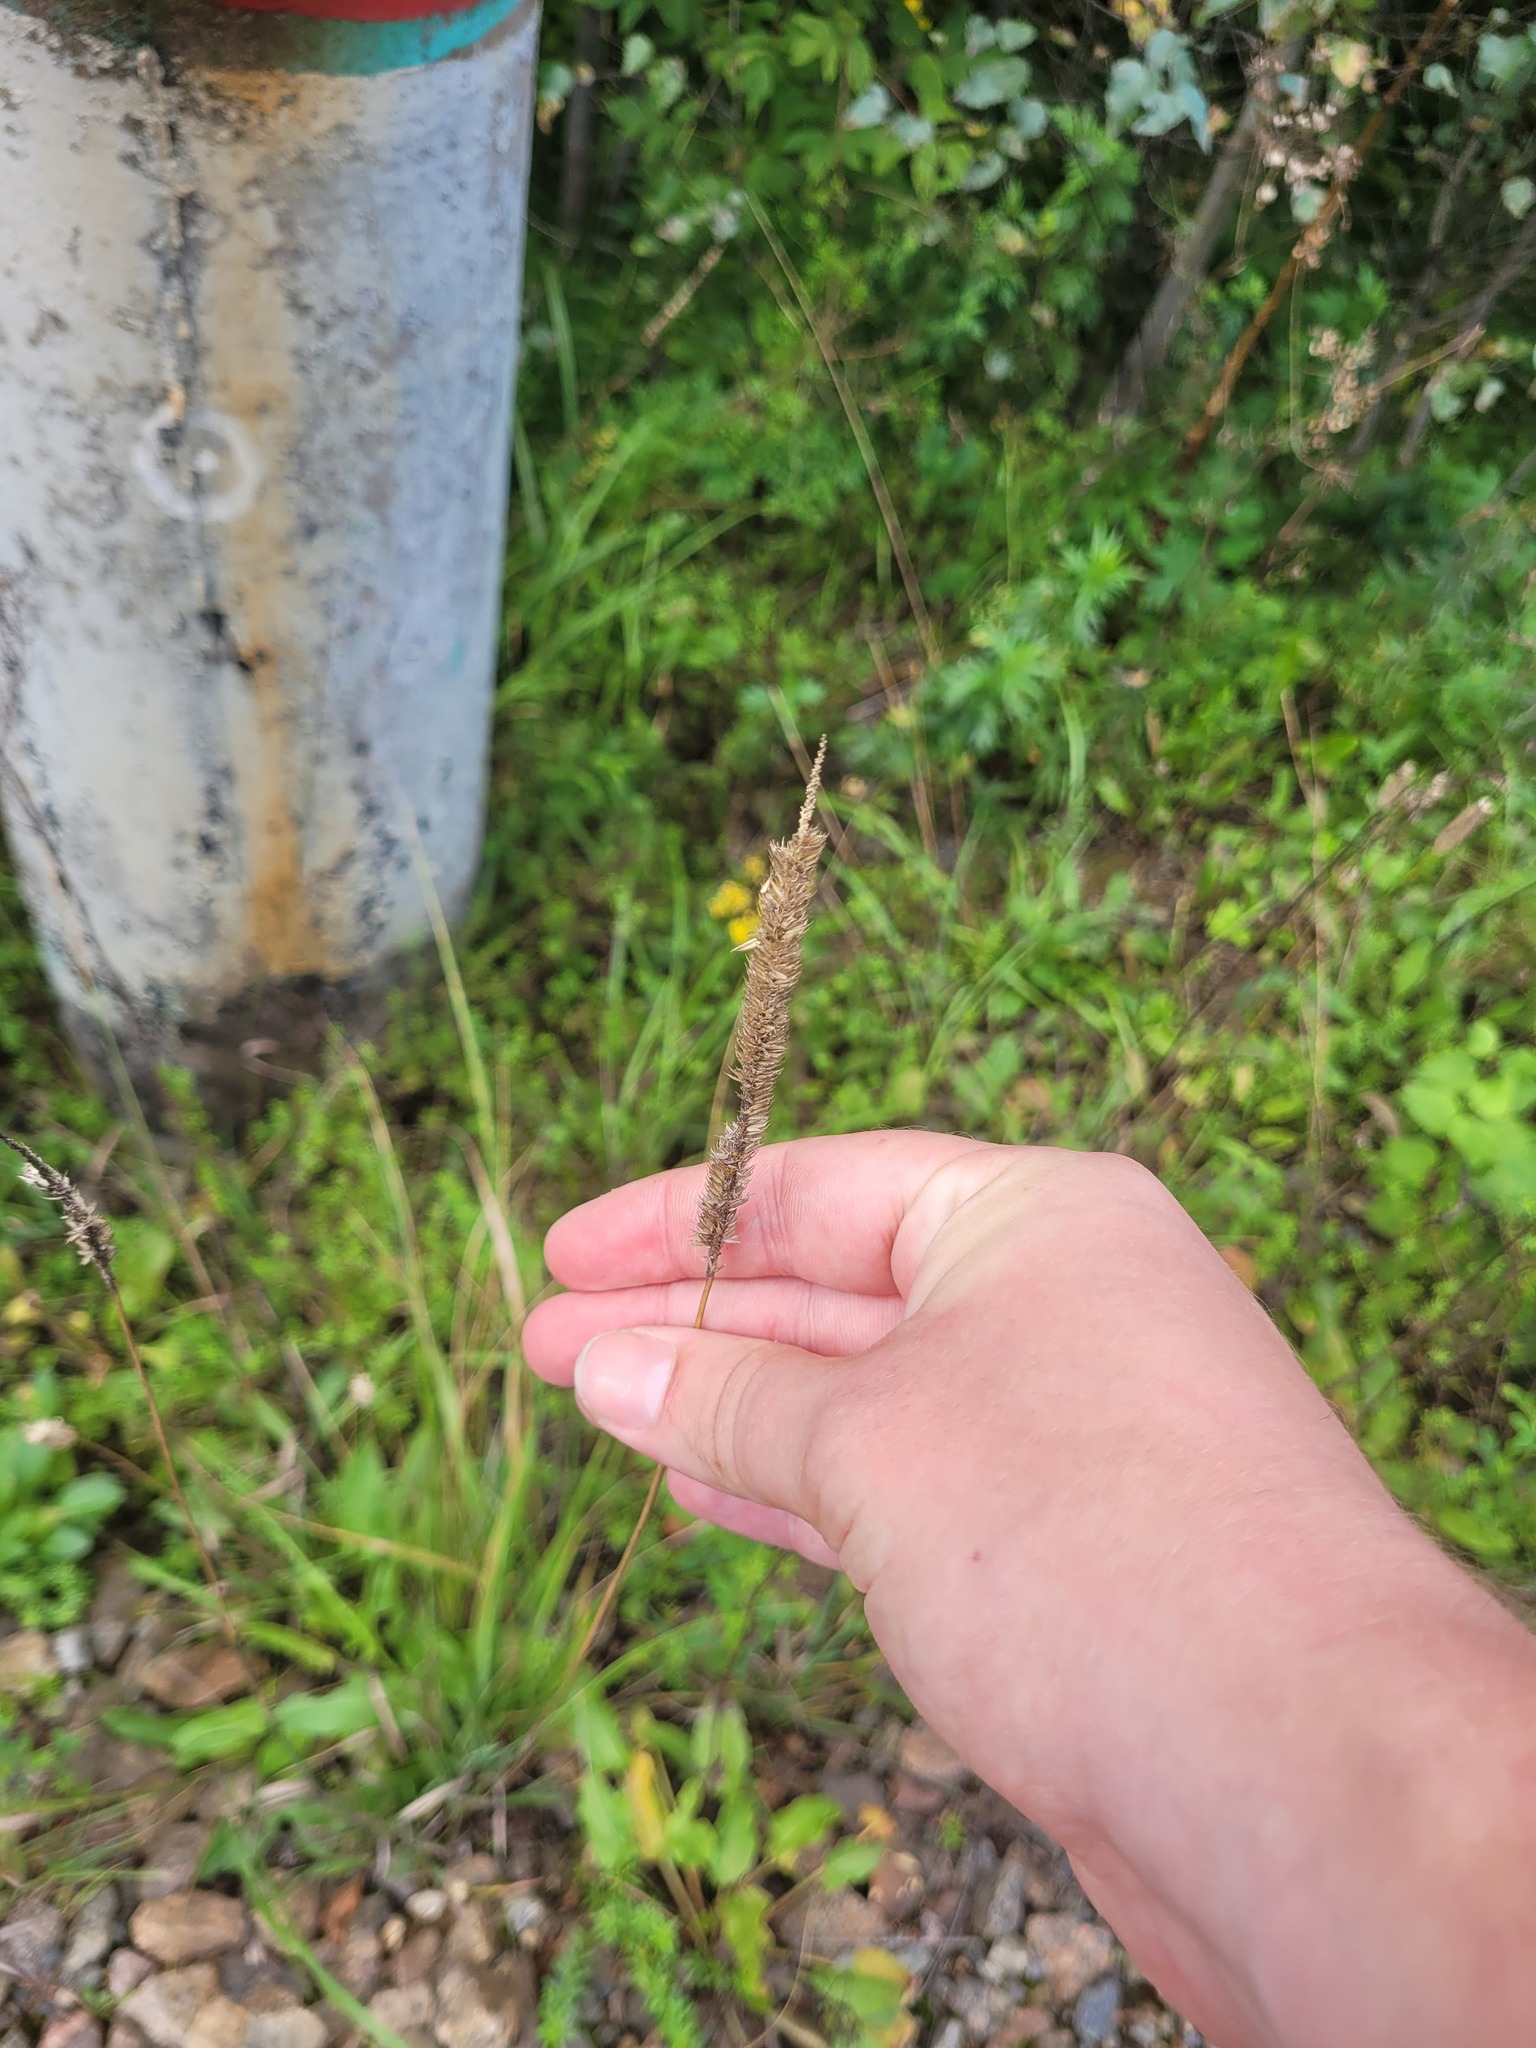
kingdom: Plantae
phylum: Tracheophyta
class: Liliopsida
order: Poales
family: Poaceae
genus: Phleum
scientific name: Phleum pratense
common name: Timothy grass
